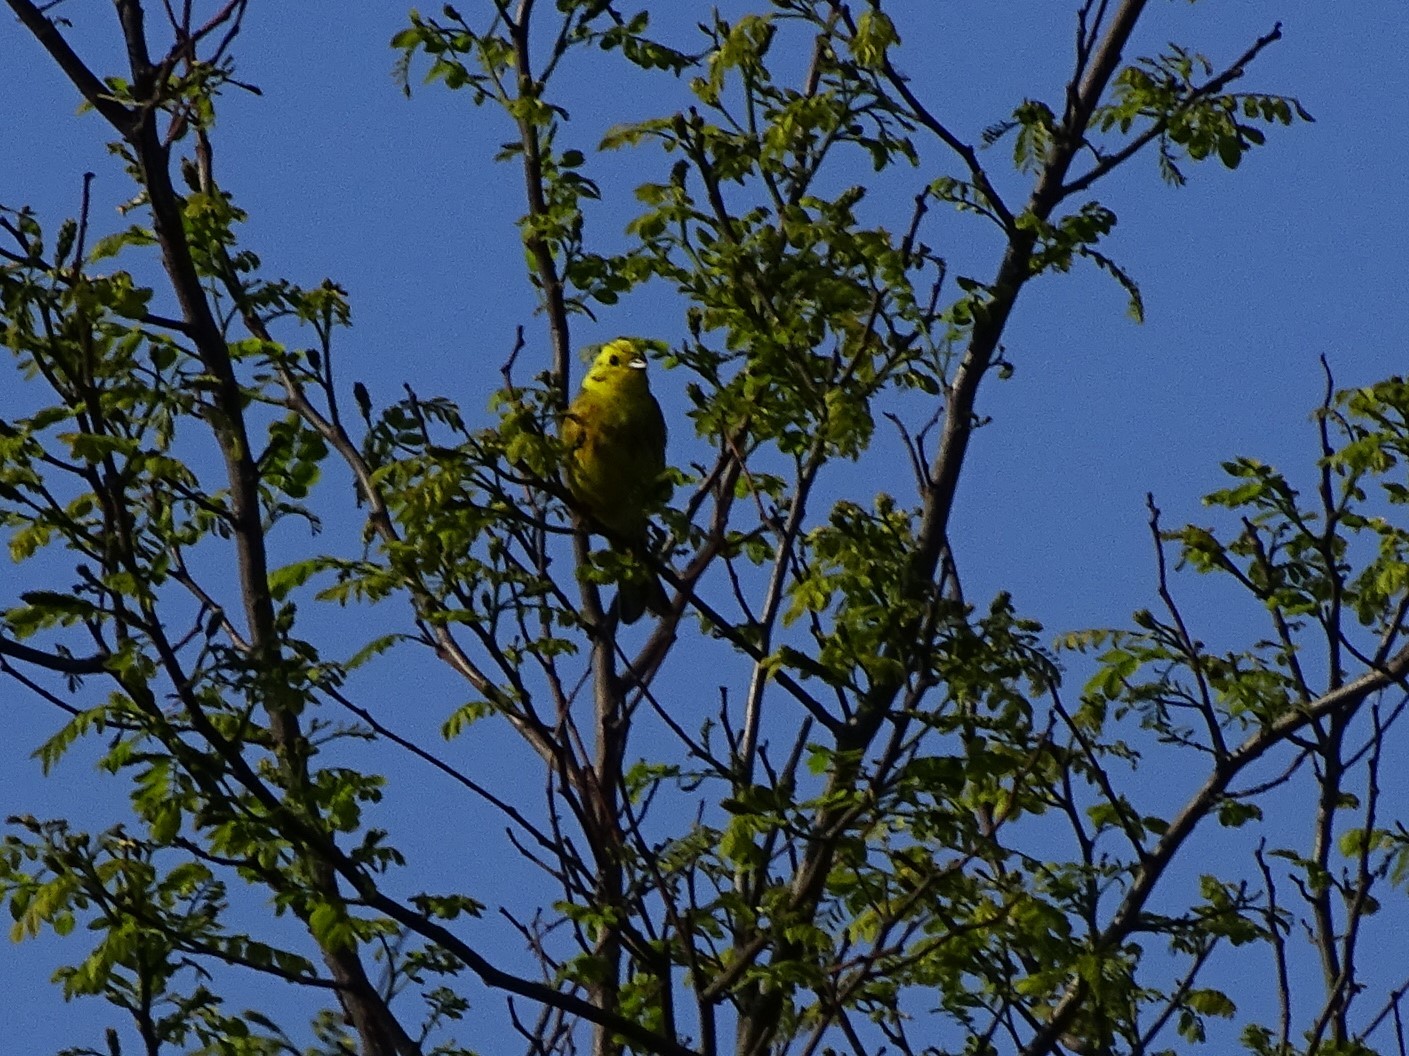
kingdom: Animalia
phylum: Chordata
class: Aves
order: Passeriformes
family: Emberizidae
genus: Emberiza
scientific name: Emberiza citrinella
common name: Yellowhammer
